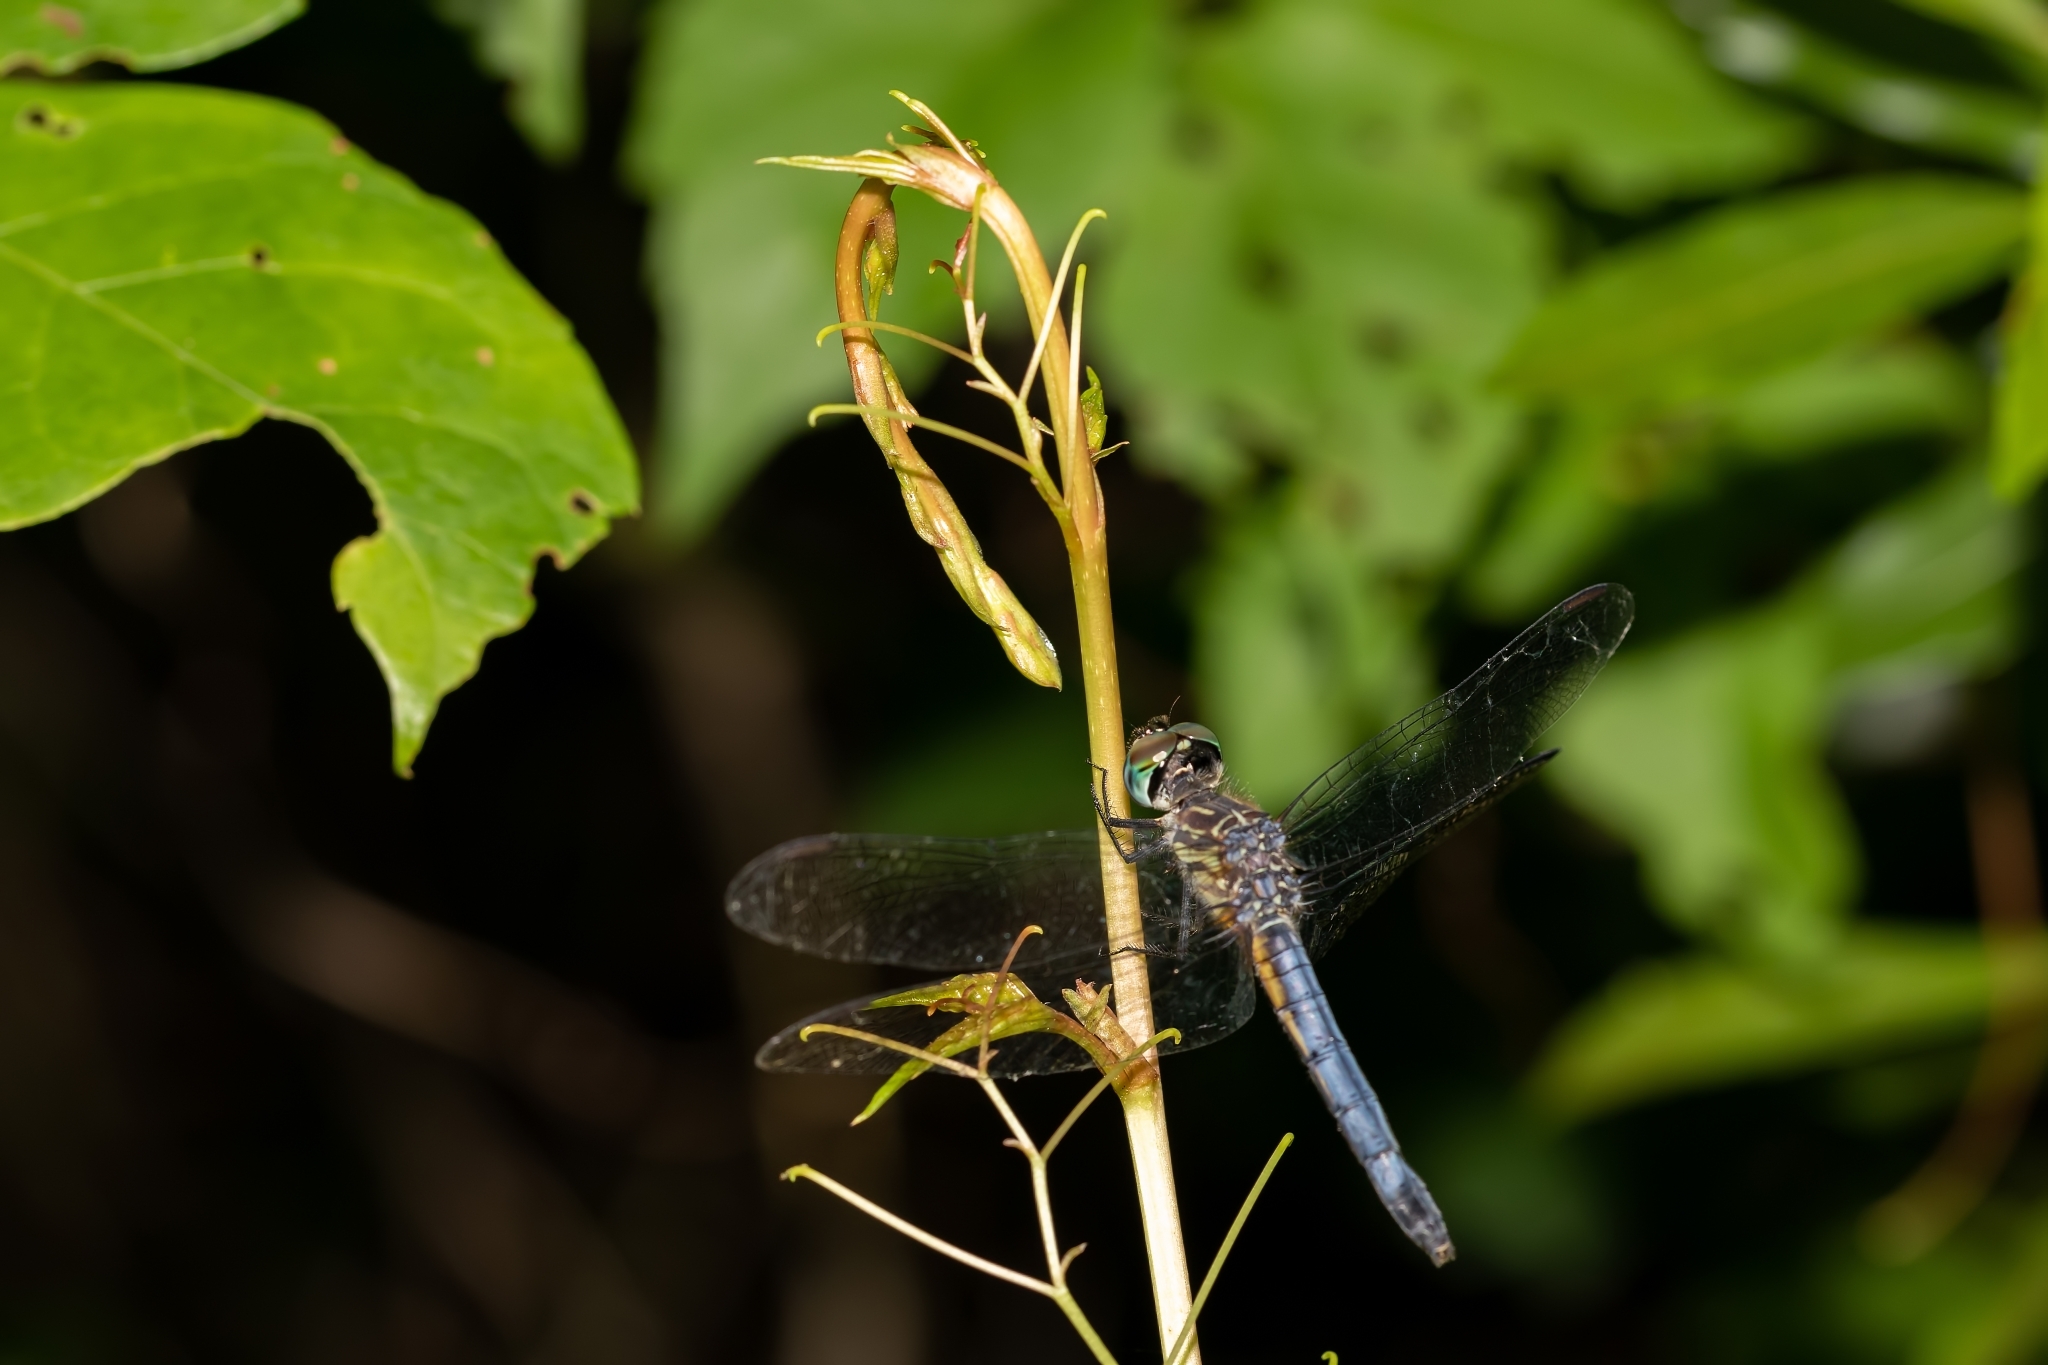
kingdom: Animalia
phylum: Arthropoda
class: Insecta
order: Odonata
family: Libellulidae
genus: Pachydiplax
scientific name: Pachydiplax longipennis
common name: Blue dasher
